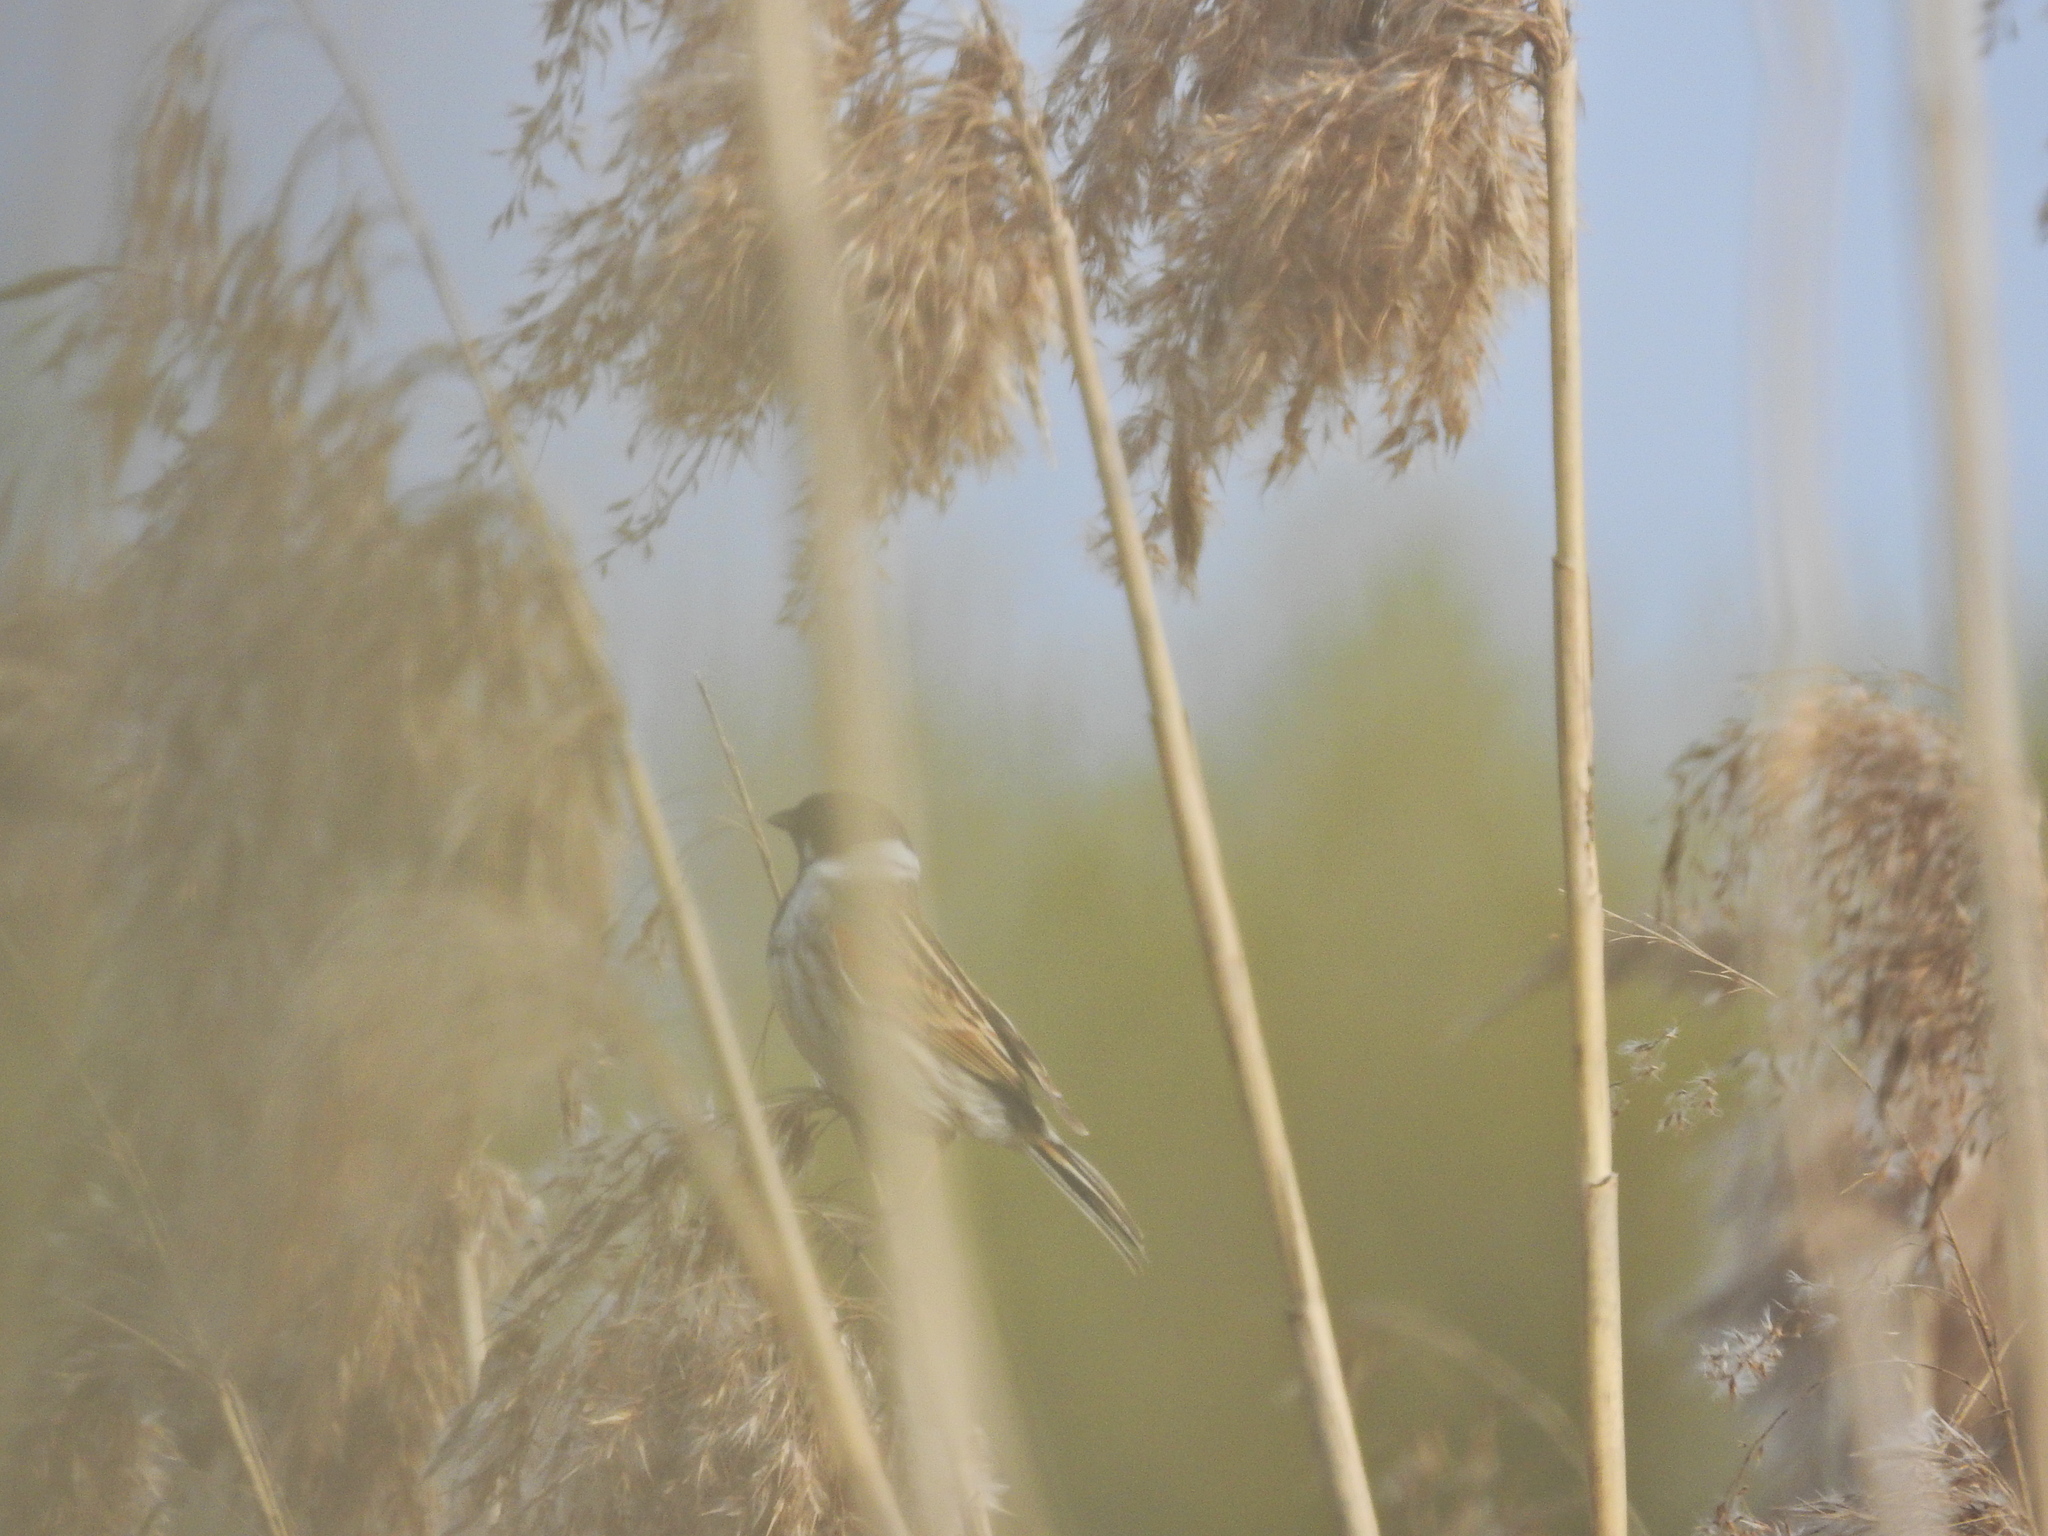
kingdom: Animalia
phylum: Chordata
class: Aves
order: Passeriformes
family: Emberizidae
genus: Emberiza
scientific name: Emberiza schoeniclus
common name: Reed bunting
